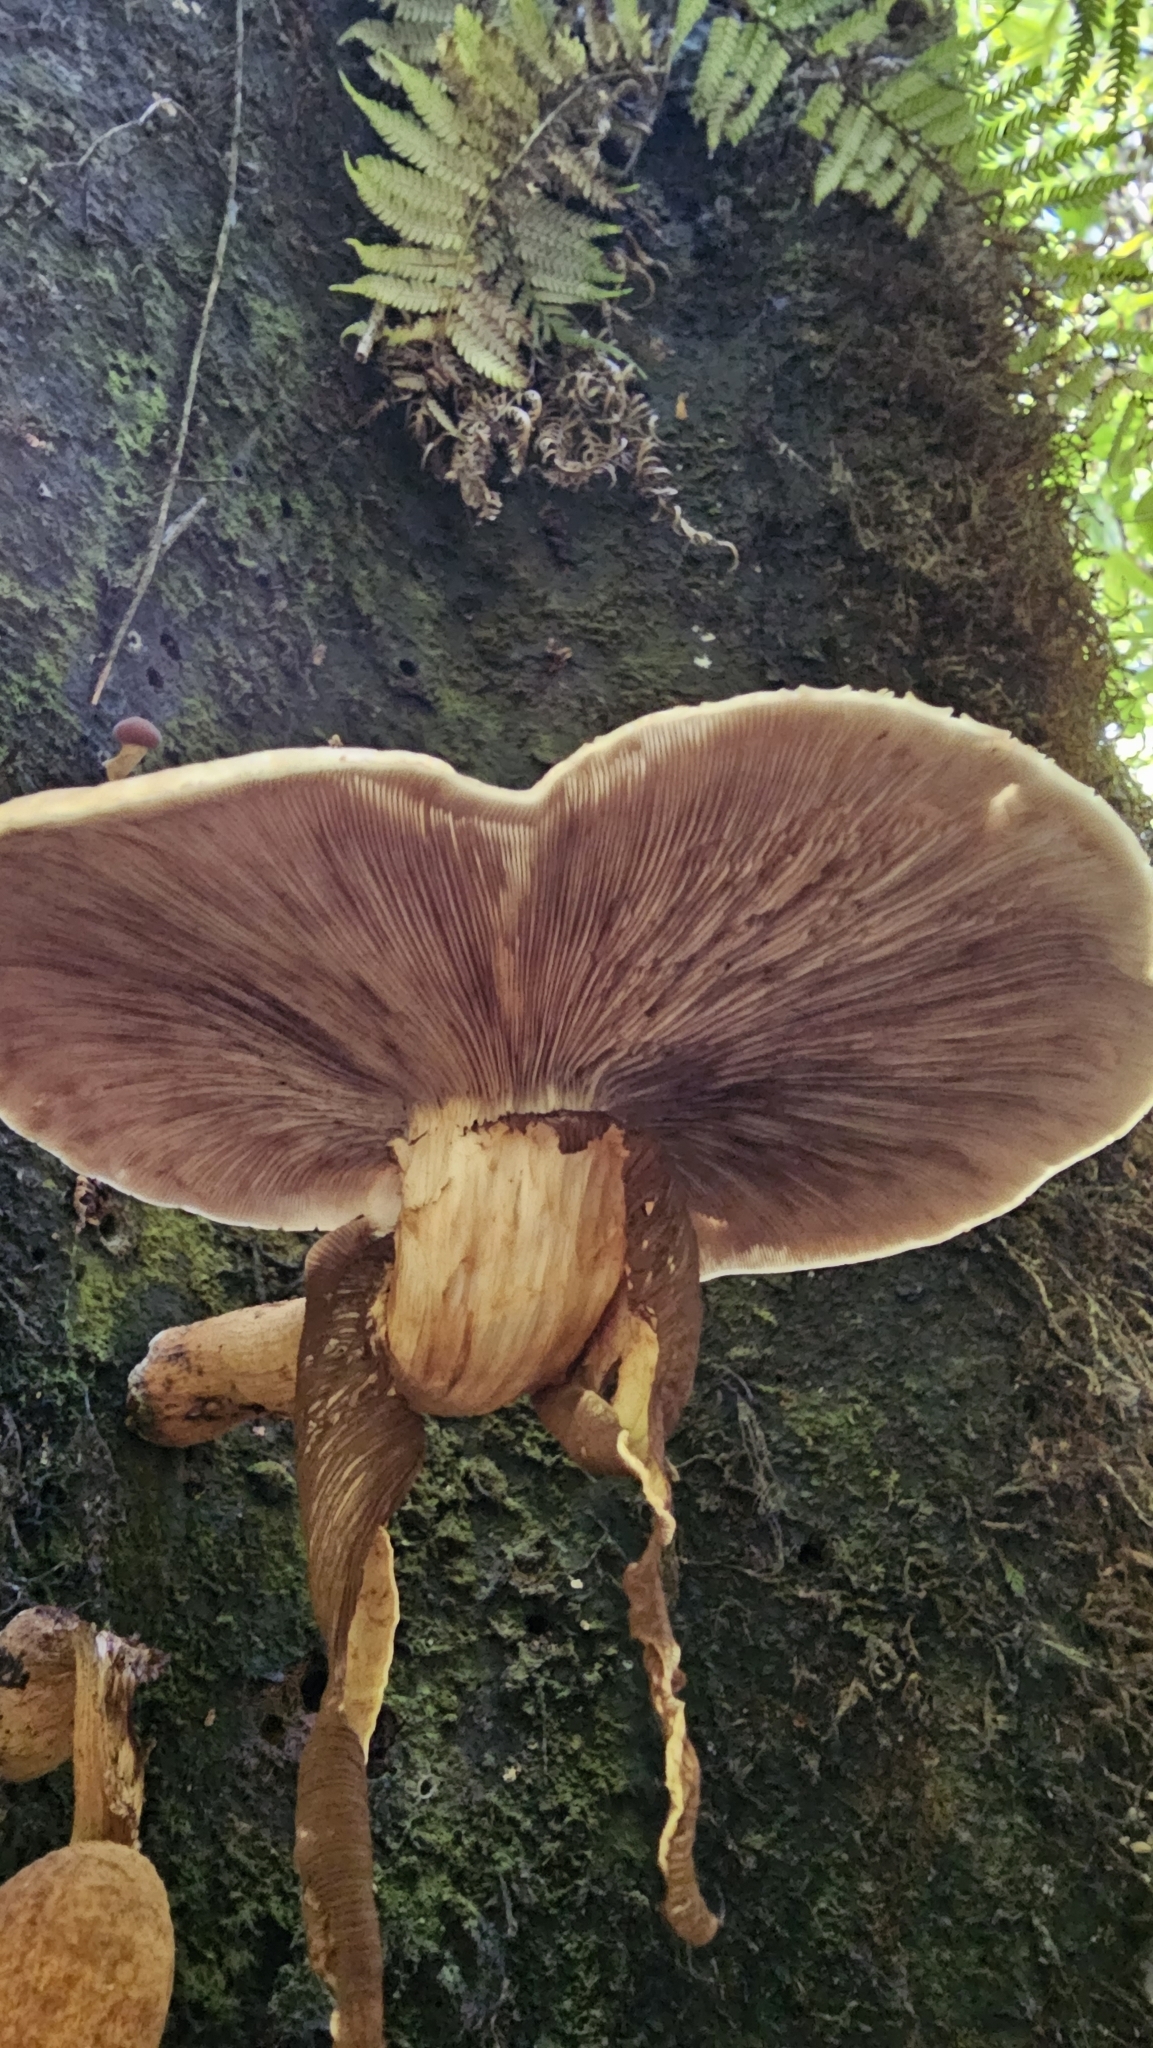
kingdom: Fungi
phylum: Basidiomycota
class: Agaricomycetes
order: Agaricales
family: Tubariaceae
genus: Cyclocybe
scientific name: Cyclocybe parasitica
